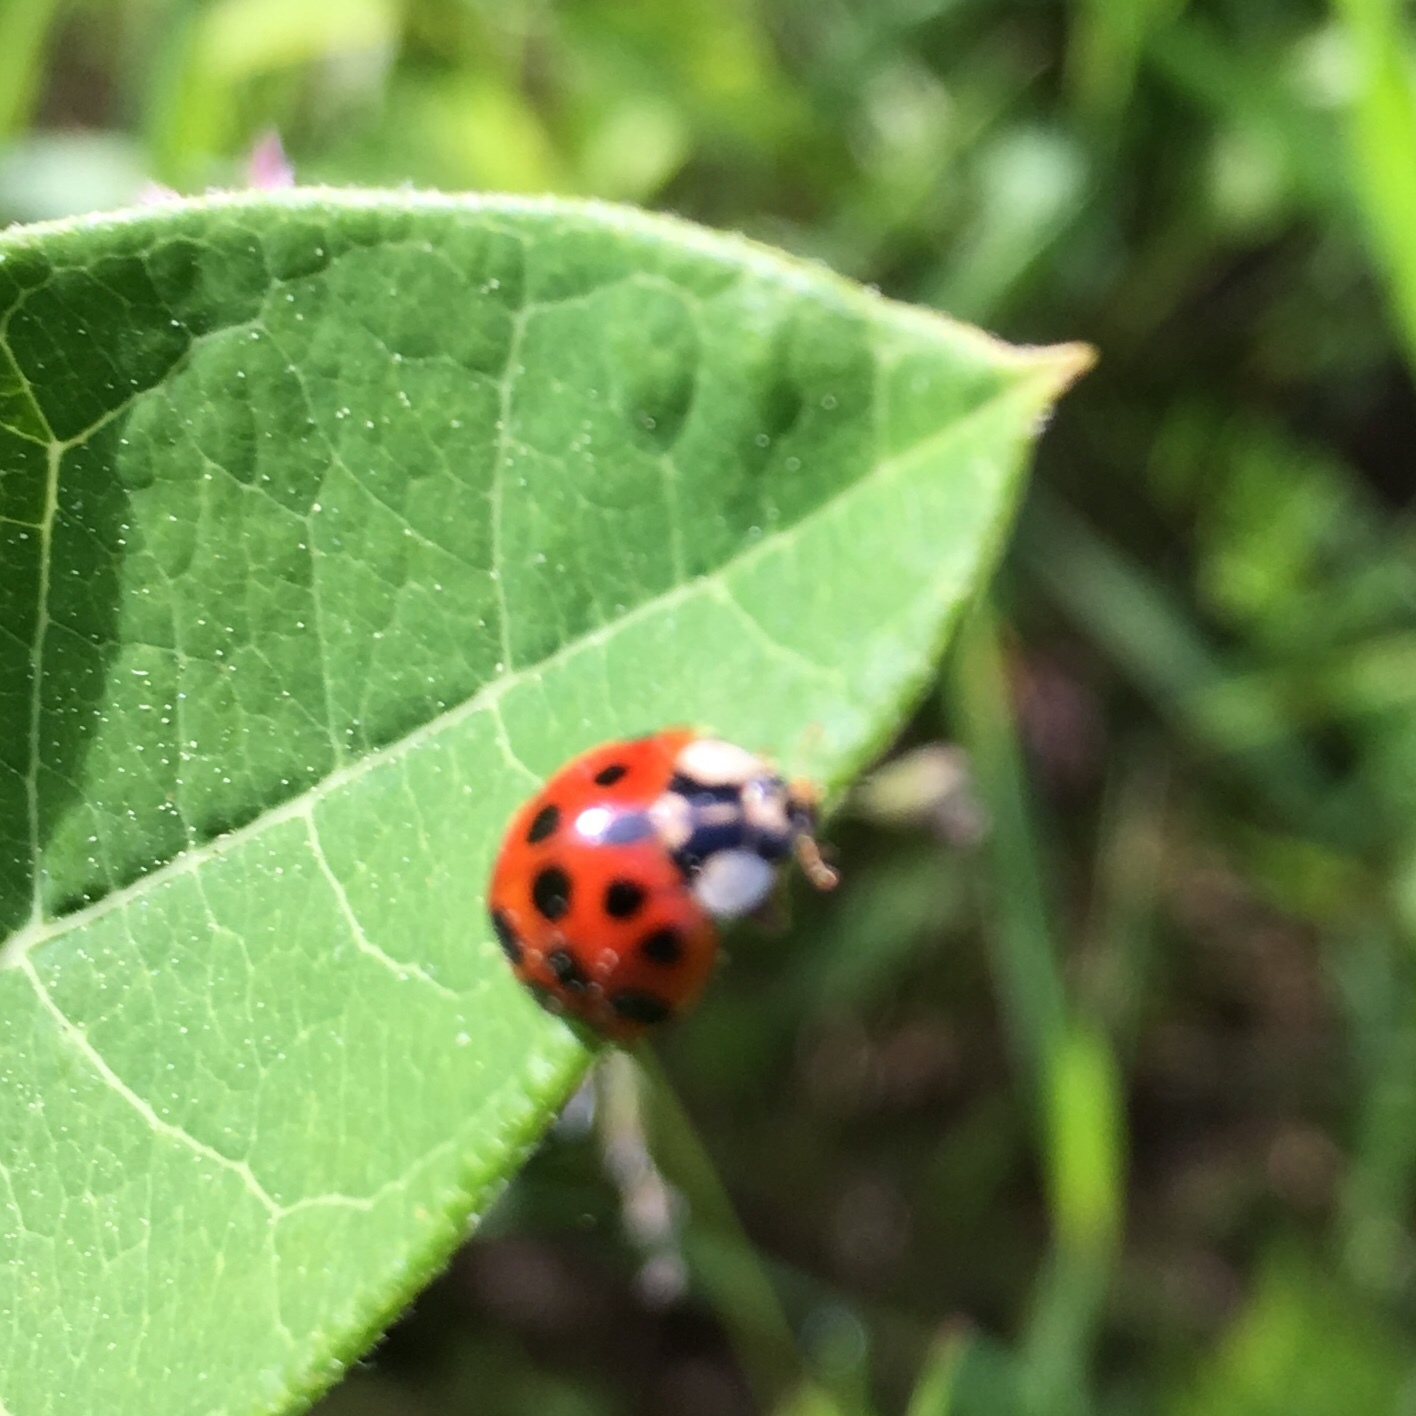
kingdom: Animalia
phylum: Arthropoda
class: Insecta
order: Coleoptera
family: Coccinellidae
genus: Harmonia
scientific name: Harmonia axyridis
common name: Harlequin ladybird
